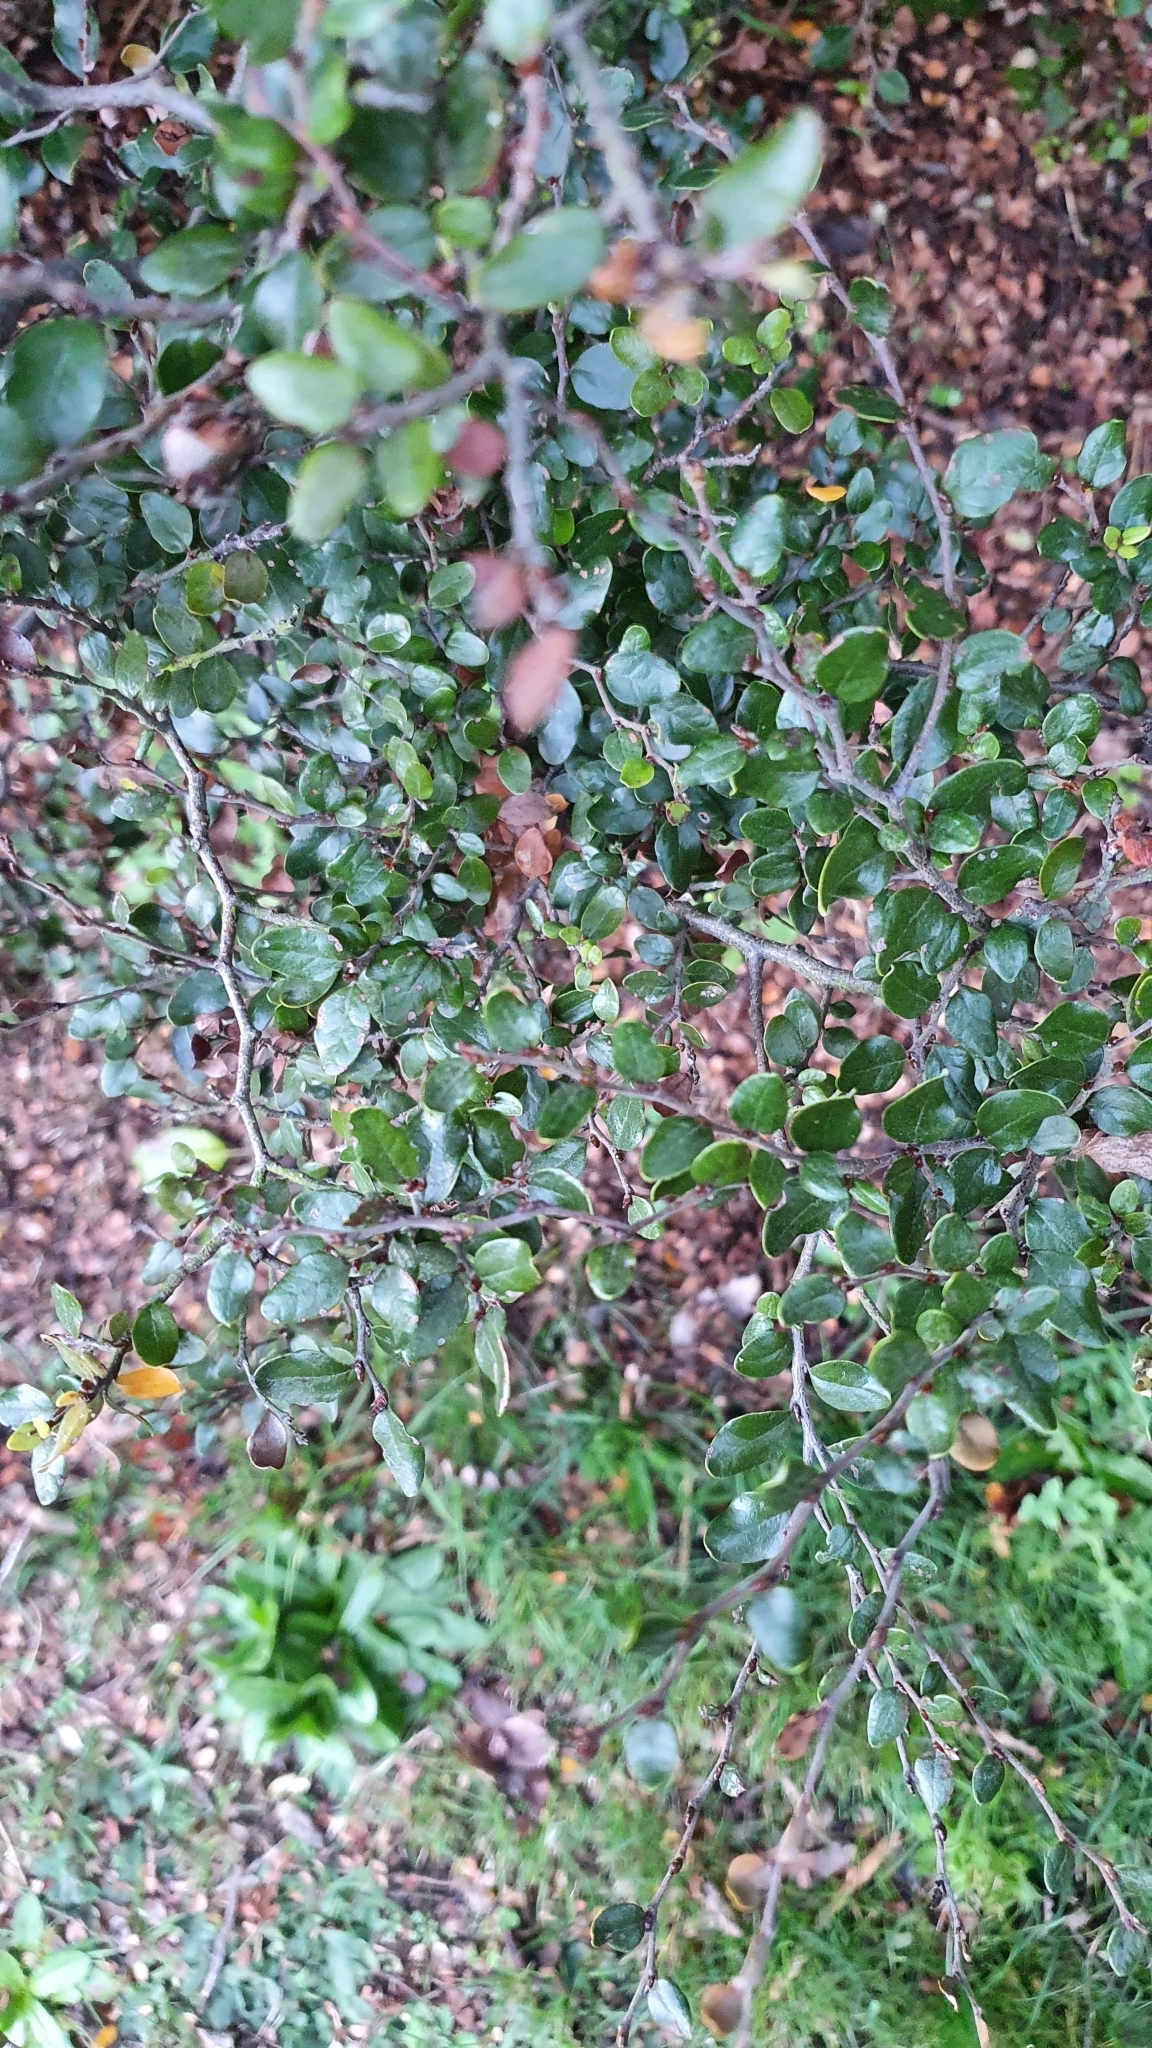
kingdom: Plantae
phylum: Tracheophyta
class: Magnoliopsida
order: Fagales
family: Nothofagaceae
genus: Nothofagus
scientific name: Nothofagus cliffortioides
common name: Mountain beech
